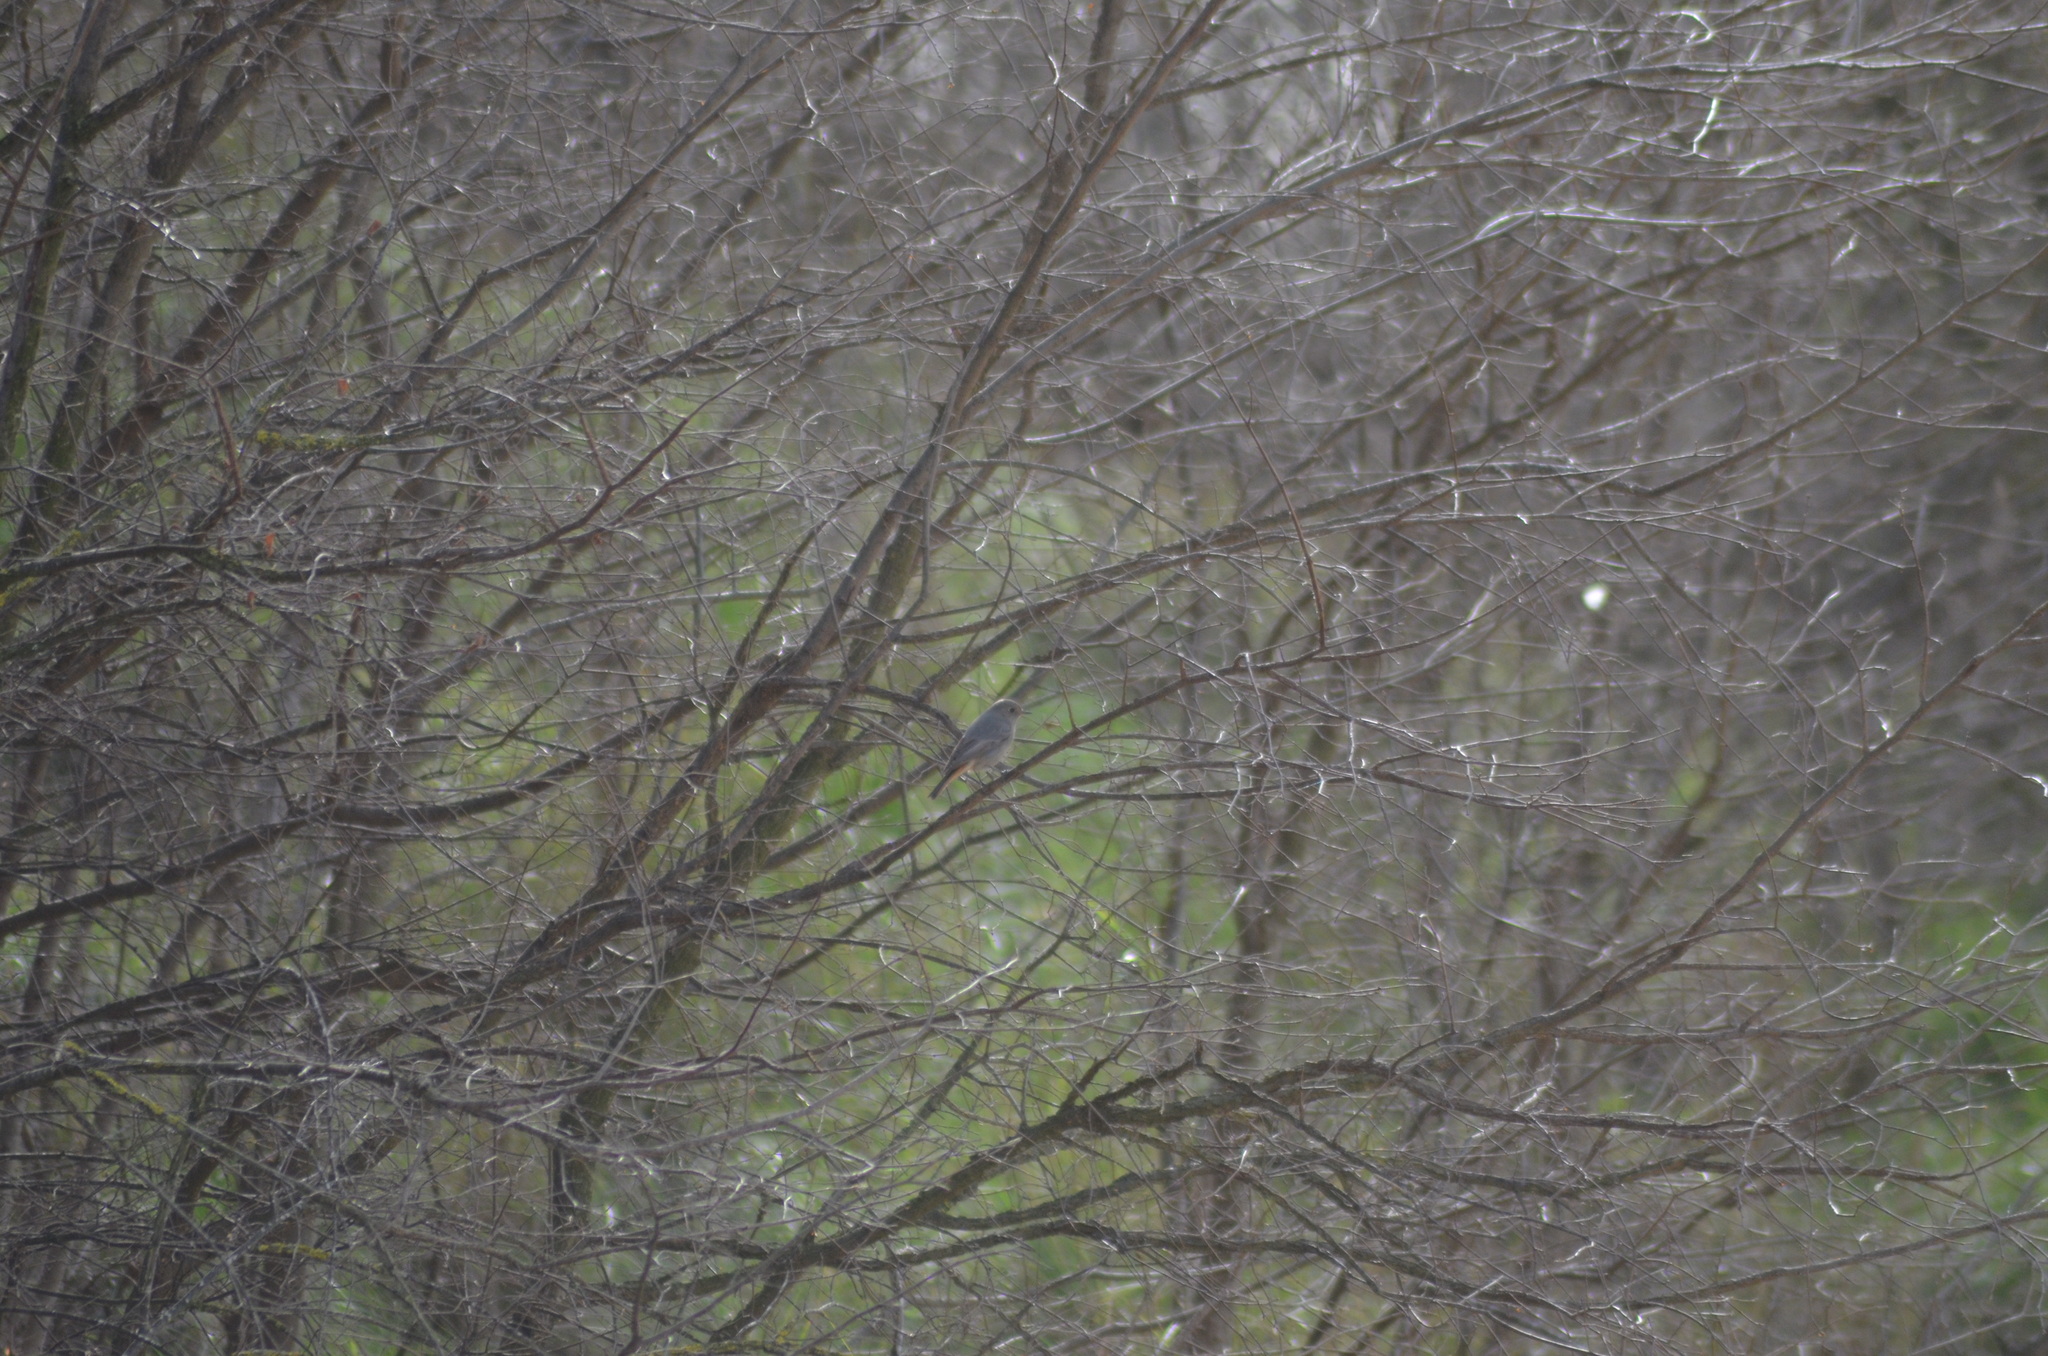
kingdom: Animalia
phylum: Chordata
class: Aves
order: Passeriformes
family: Muscicapidae
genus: Phoenicurus
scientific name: Phoenicurus ochruros
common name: Black redstart
